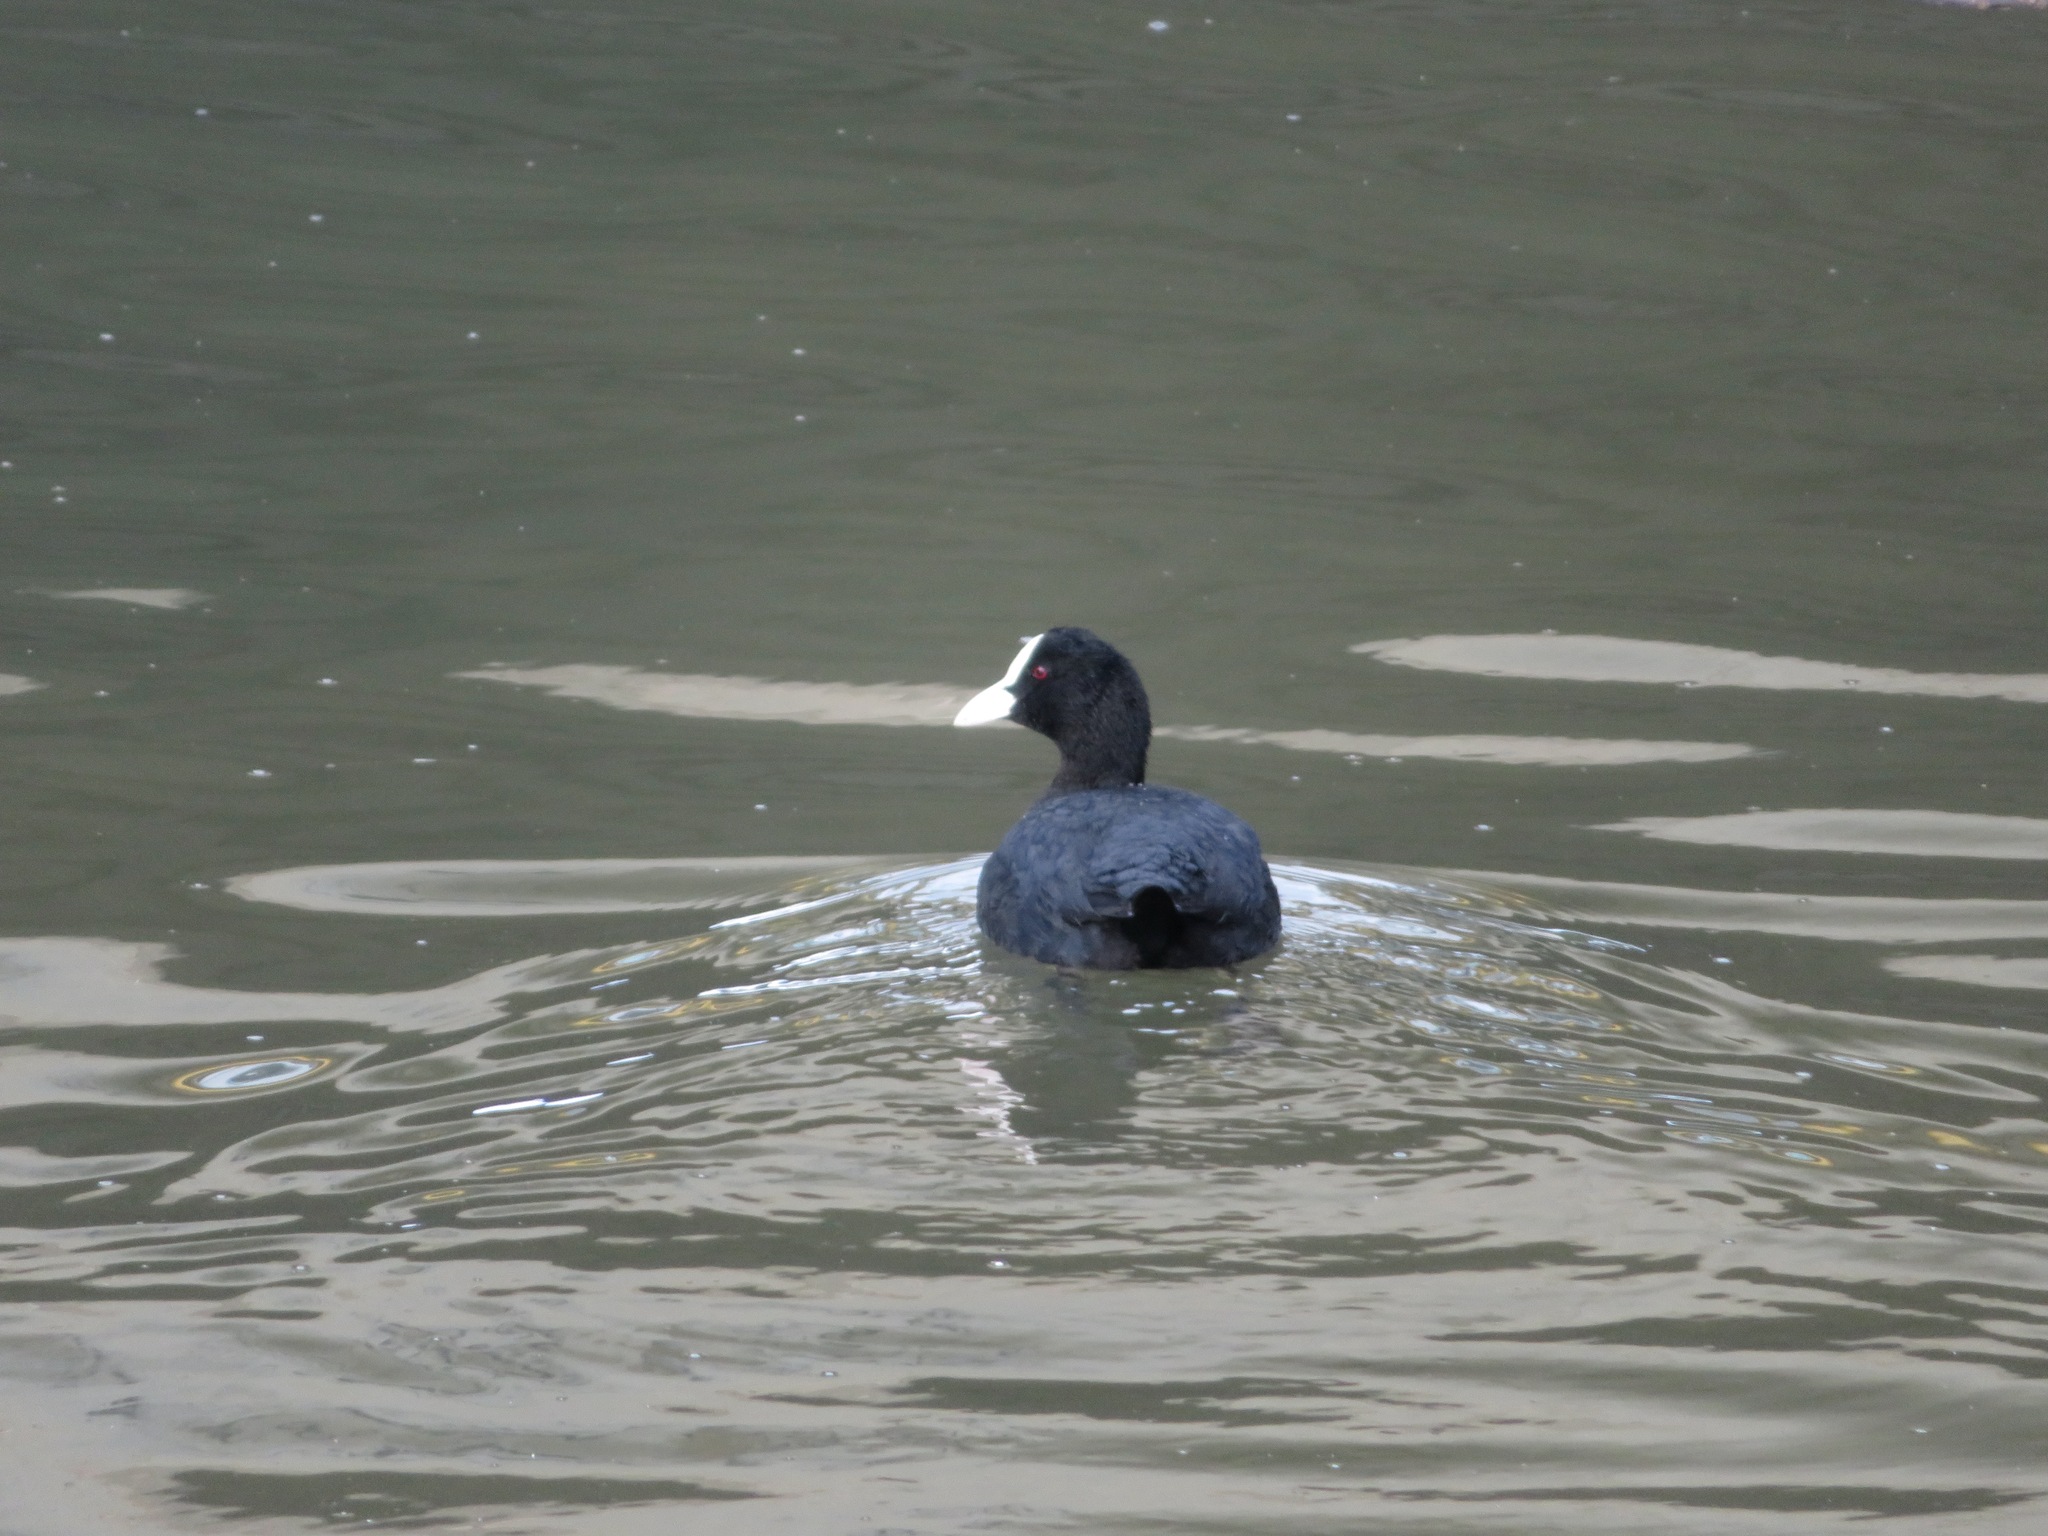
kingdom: Animalia
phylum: Chordata
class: Aves
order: Gruiformes
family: Rallidae
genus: Fulica
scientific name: Fulica atra
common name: Eurasian coot
